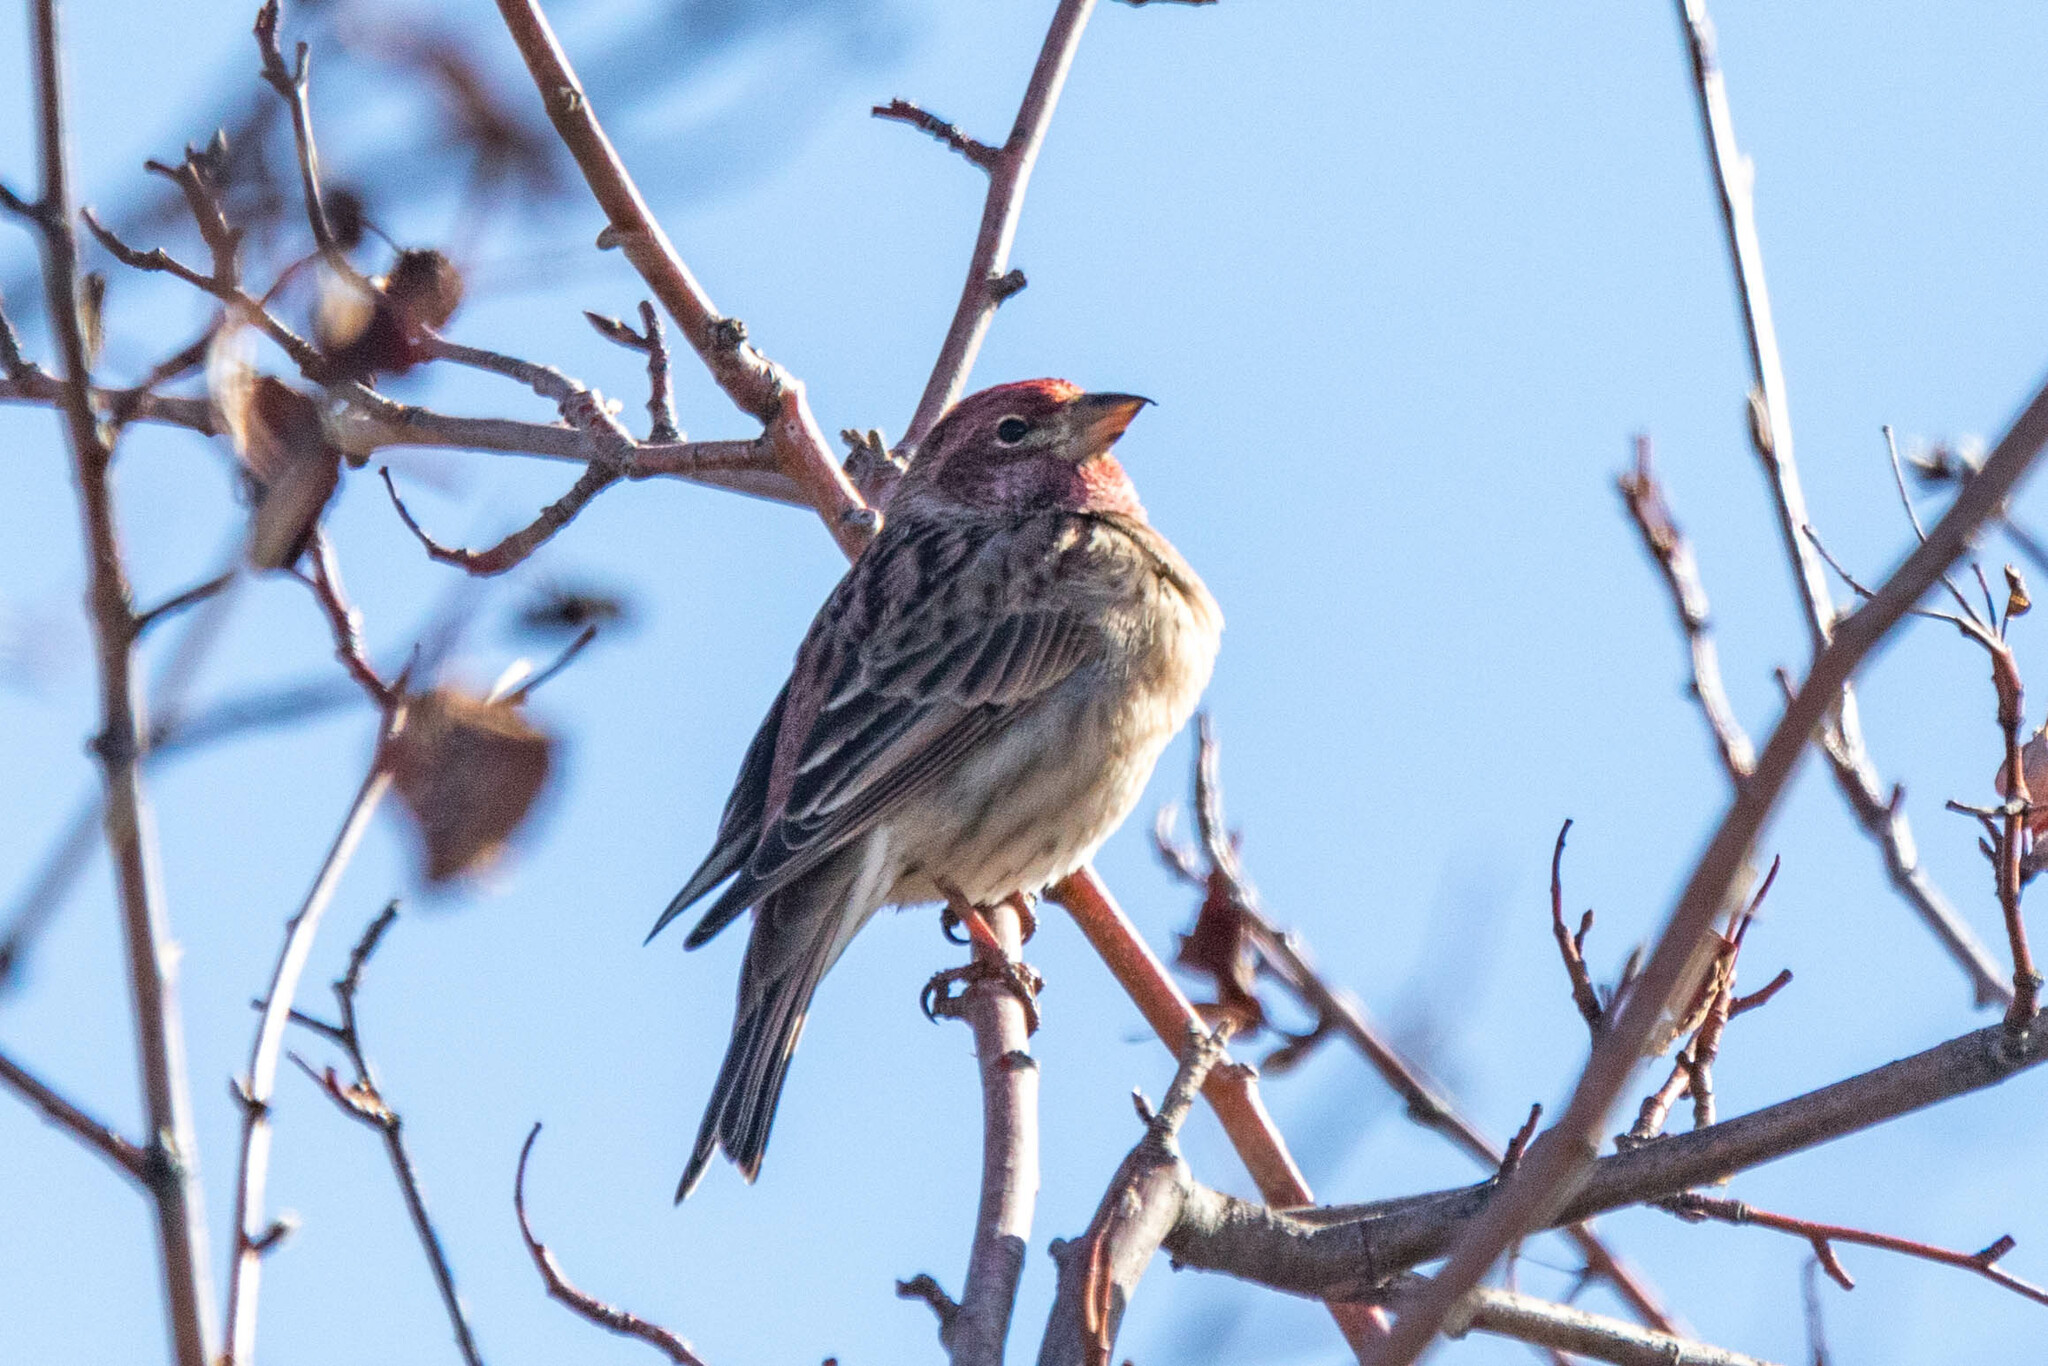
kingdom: Animalia
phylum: Chordata
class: Aves
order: Passeriformes
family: Fringillidae
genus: Haemorhous
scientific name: Haemorhous cassinii
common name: Cassin's finch
